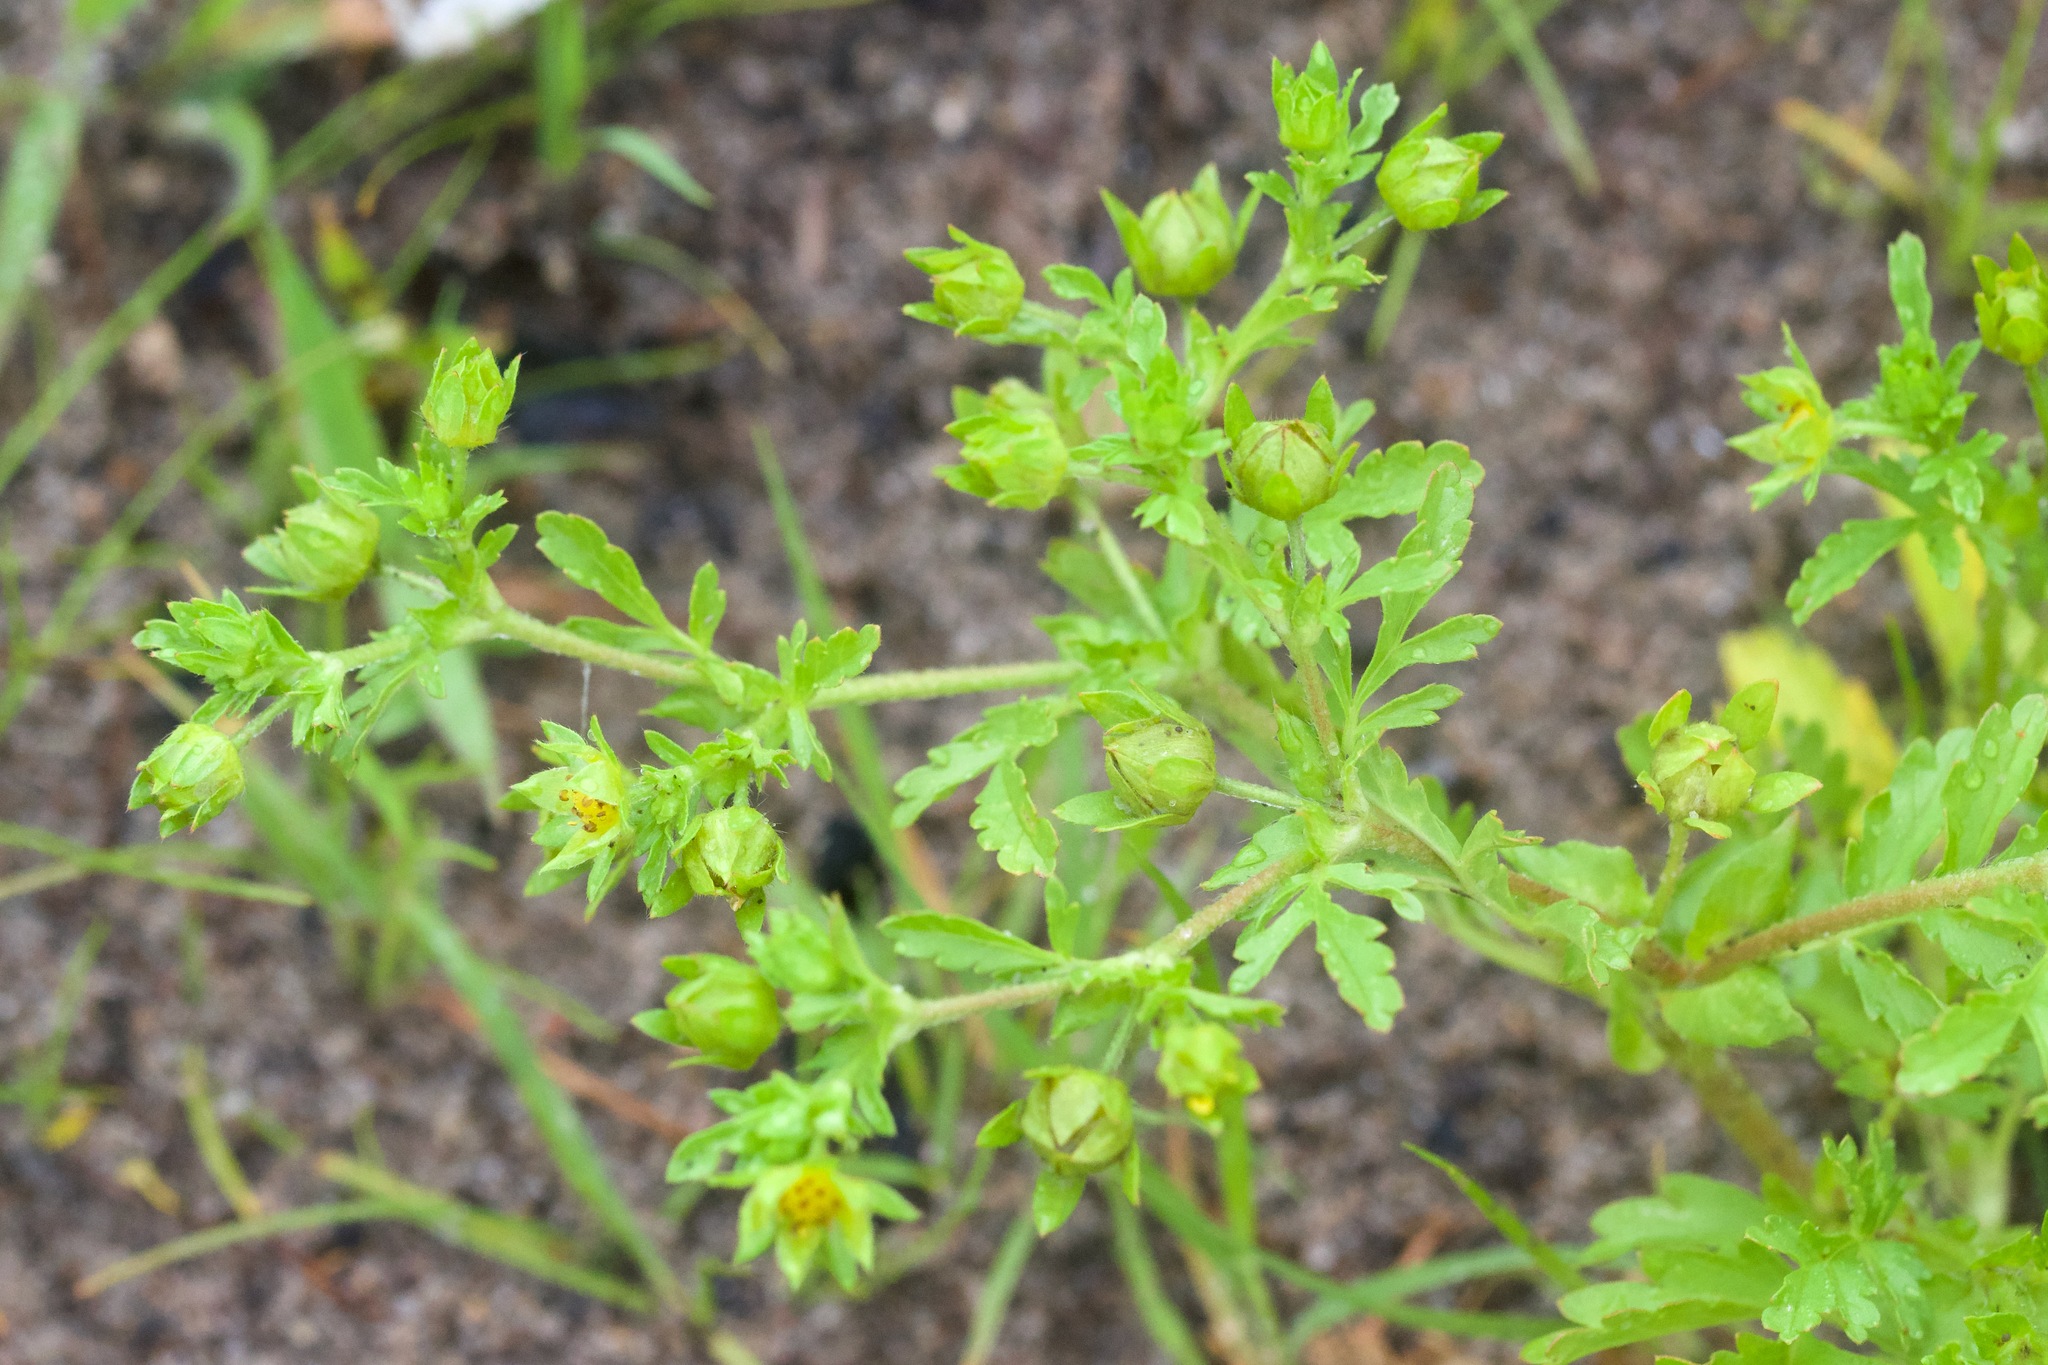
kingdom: Plantae
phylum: Tracheophyta
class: Magnoliopsida
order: Rosales
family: Rosaceae
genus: Potentilla
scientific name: Potentilla supina
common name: Prostrate cinquefoil
